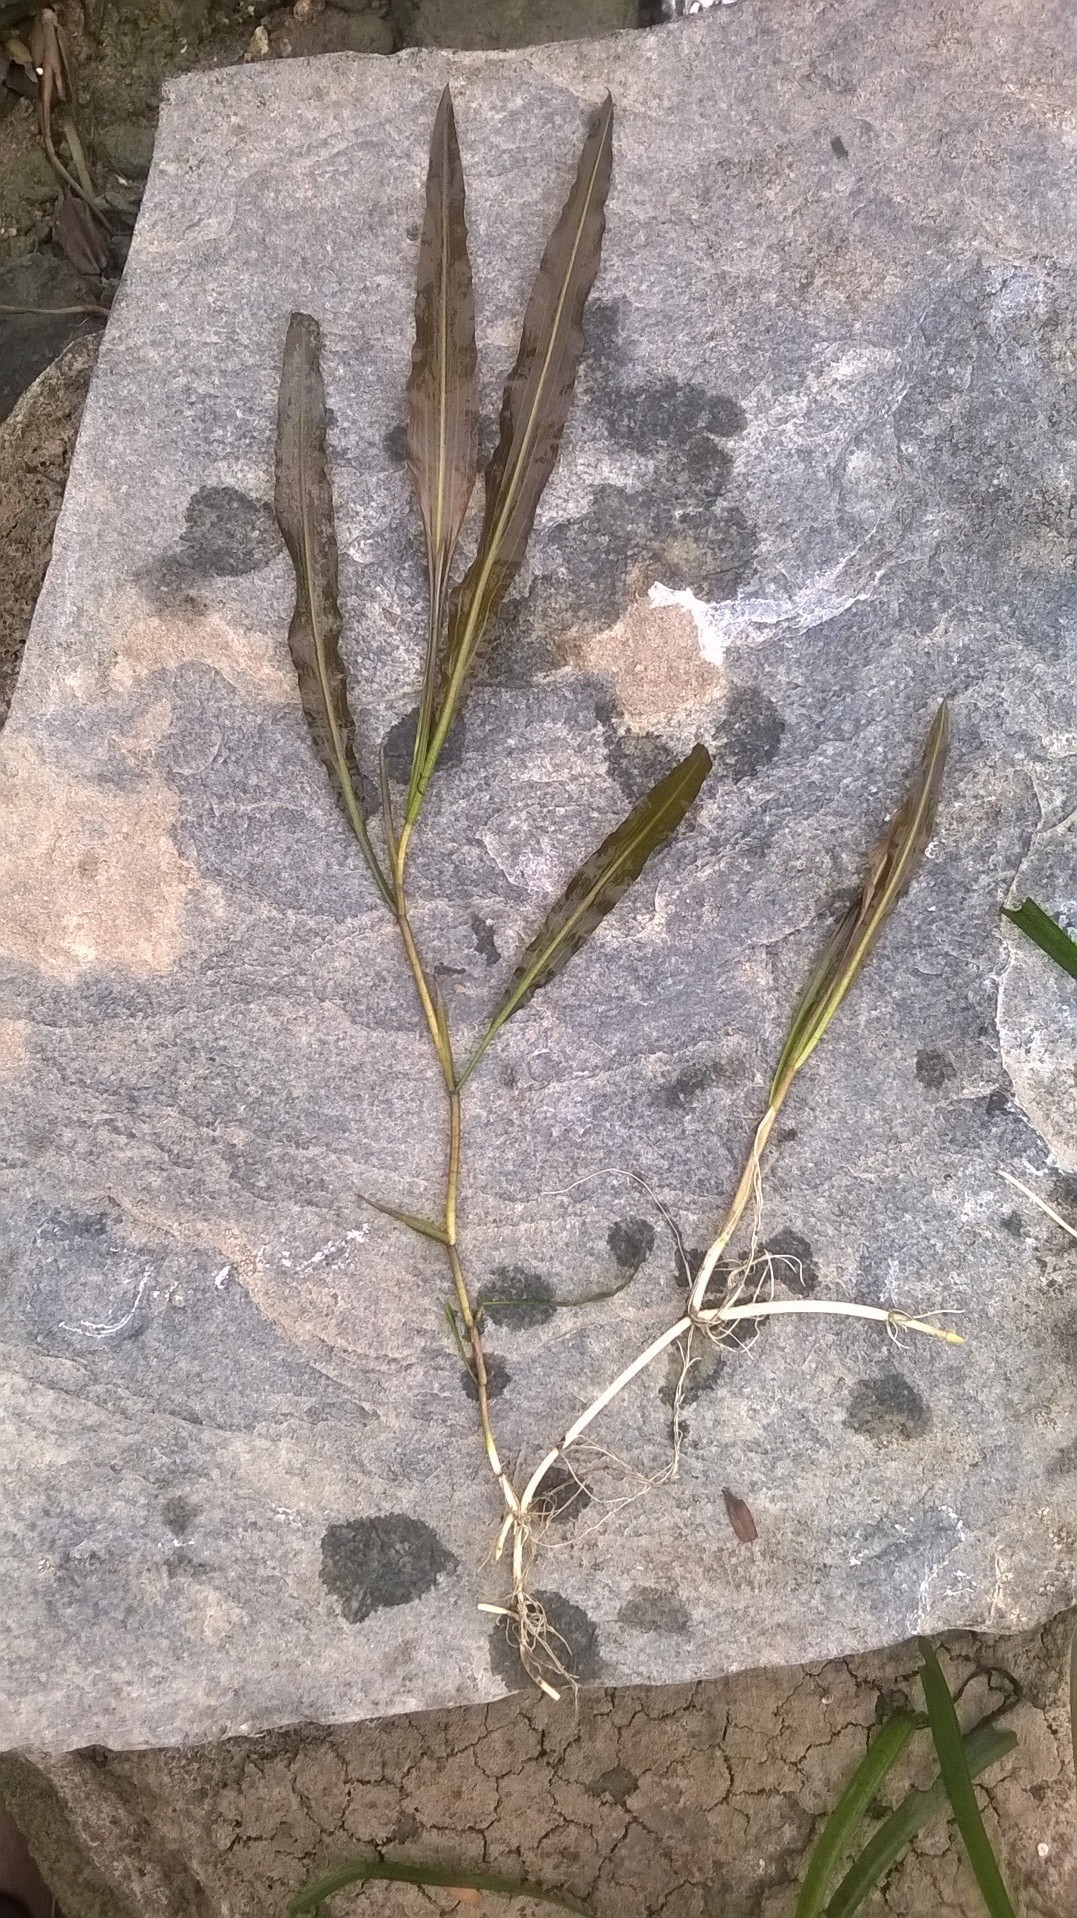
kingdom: Plantae
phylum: Tracheophyta
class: Liliopsida
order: Alismatales
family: Potamogetonaceae
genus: Potamogeton
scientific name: Potamogeton crispus
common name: Curled pondweed
